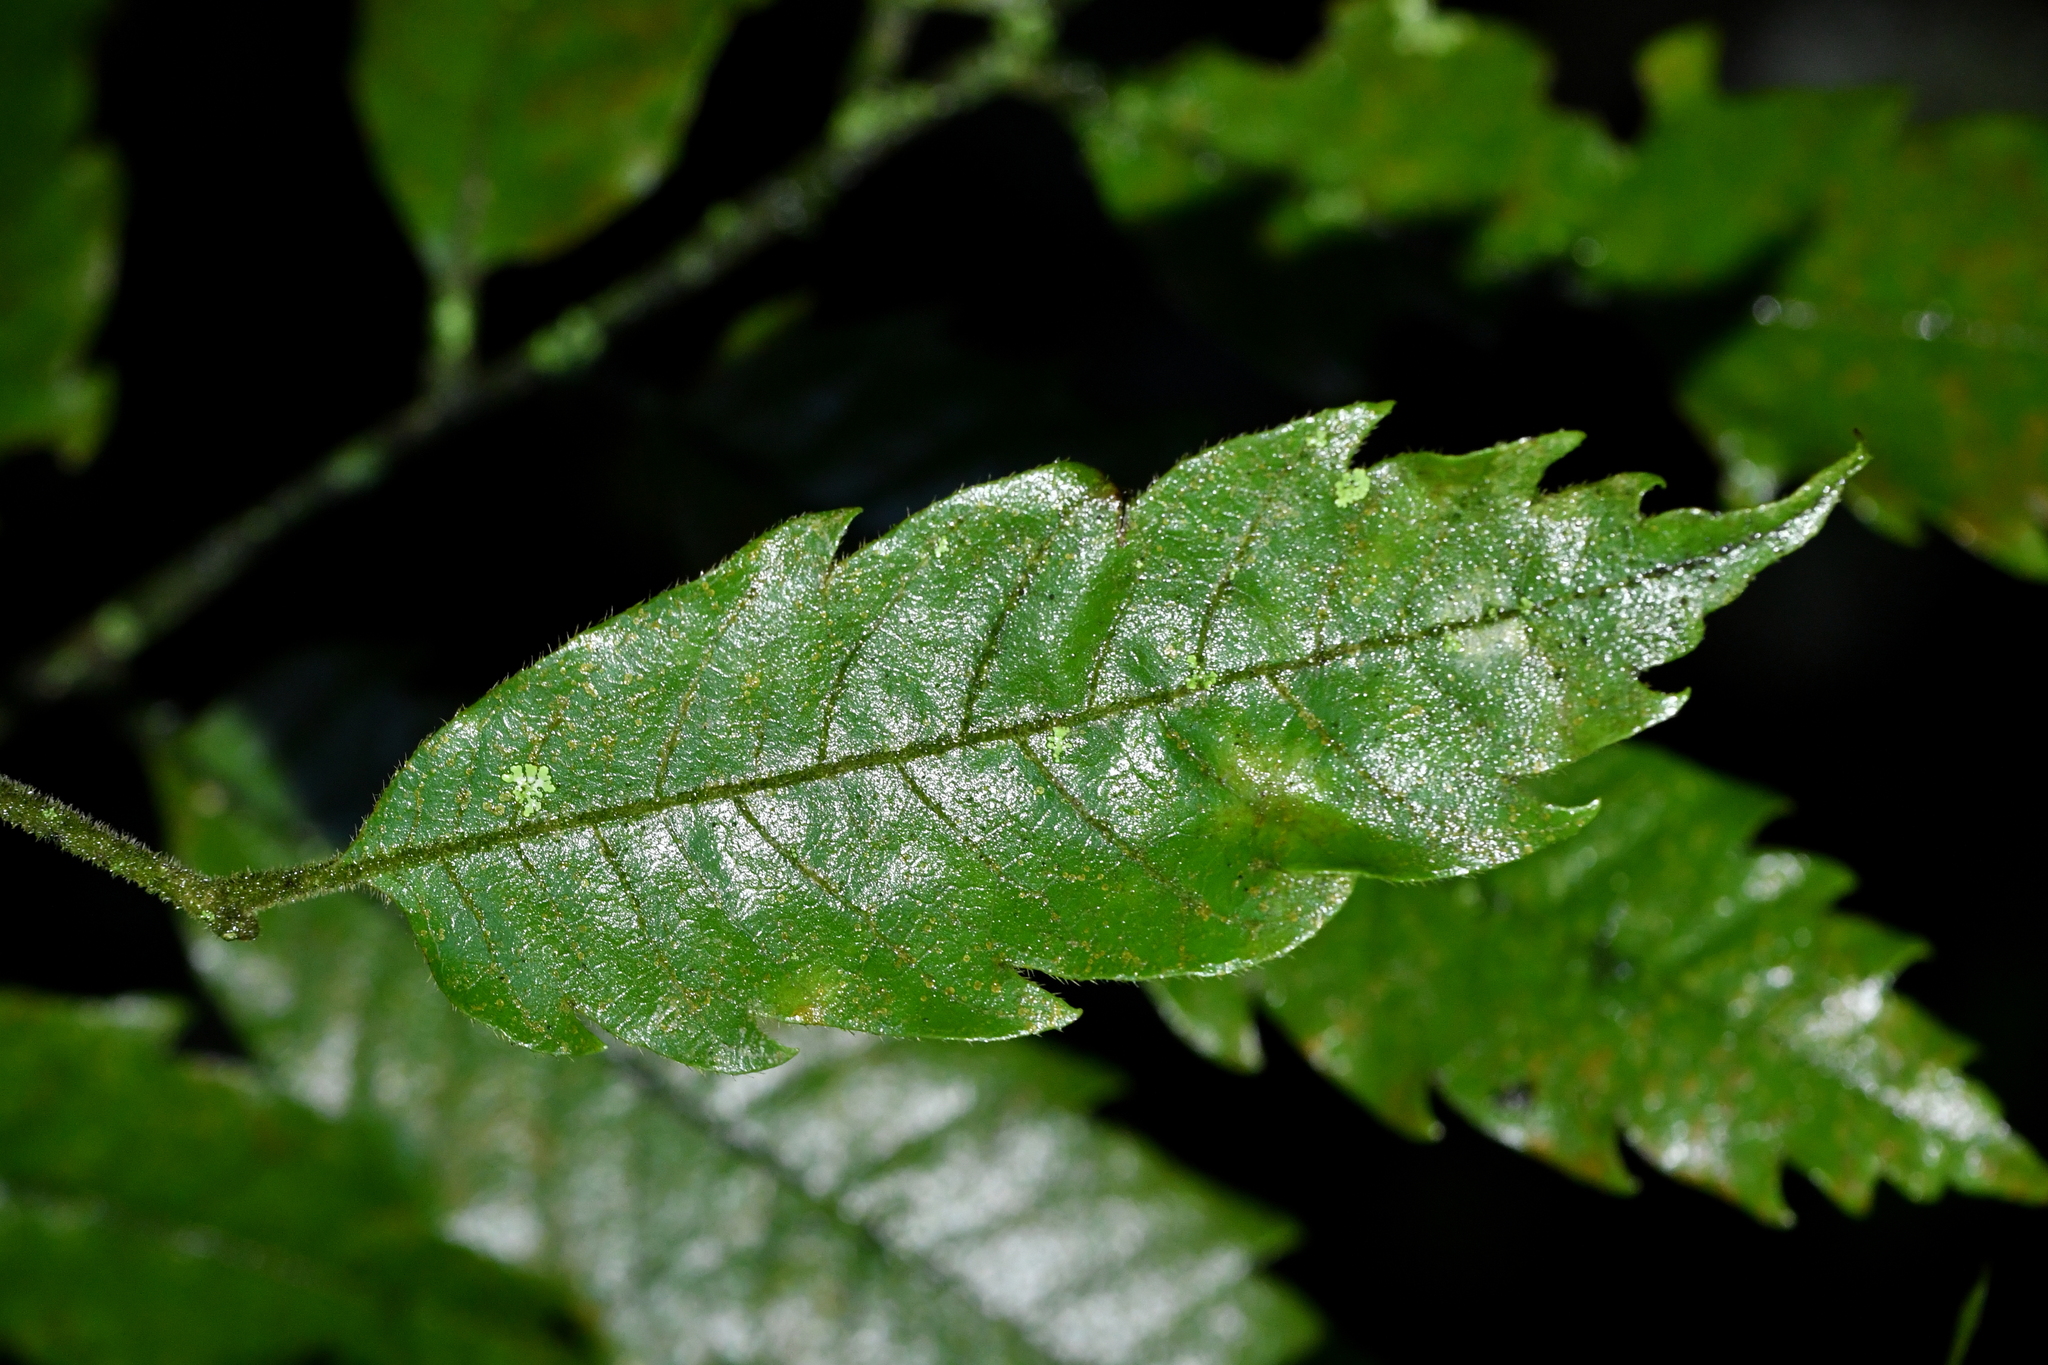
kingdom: Plantae
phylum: Tracheophyta
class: Magnoliopsida
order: Sapindales
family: Sapindaceae
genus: Alectryon
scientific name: Alectryon excelsus
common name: Three kings titoki
